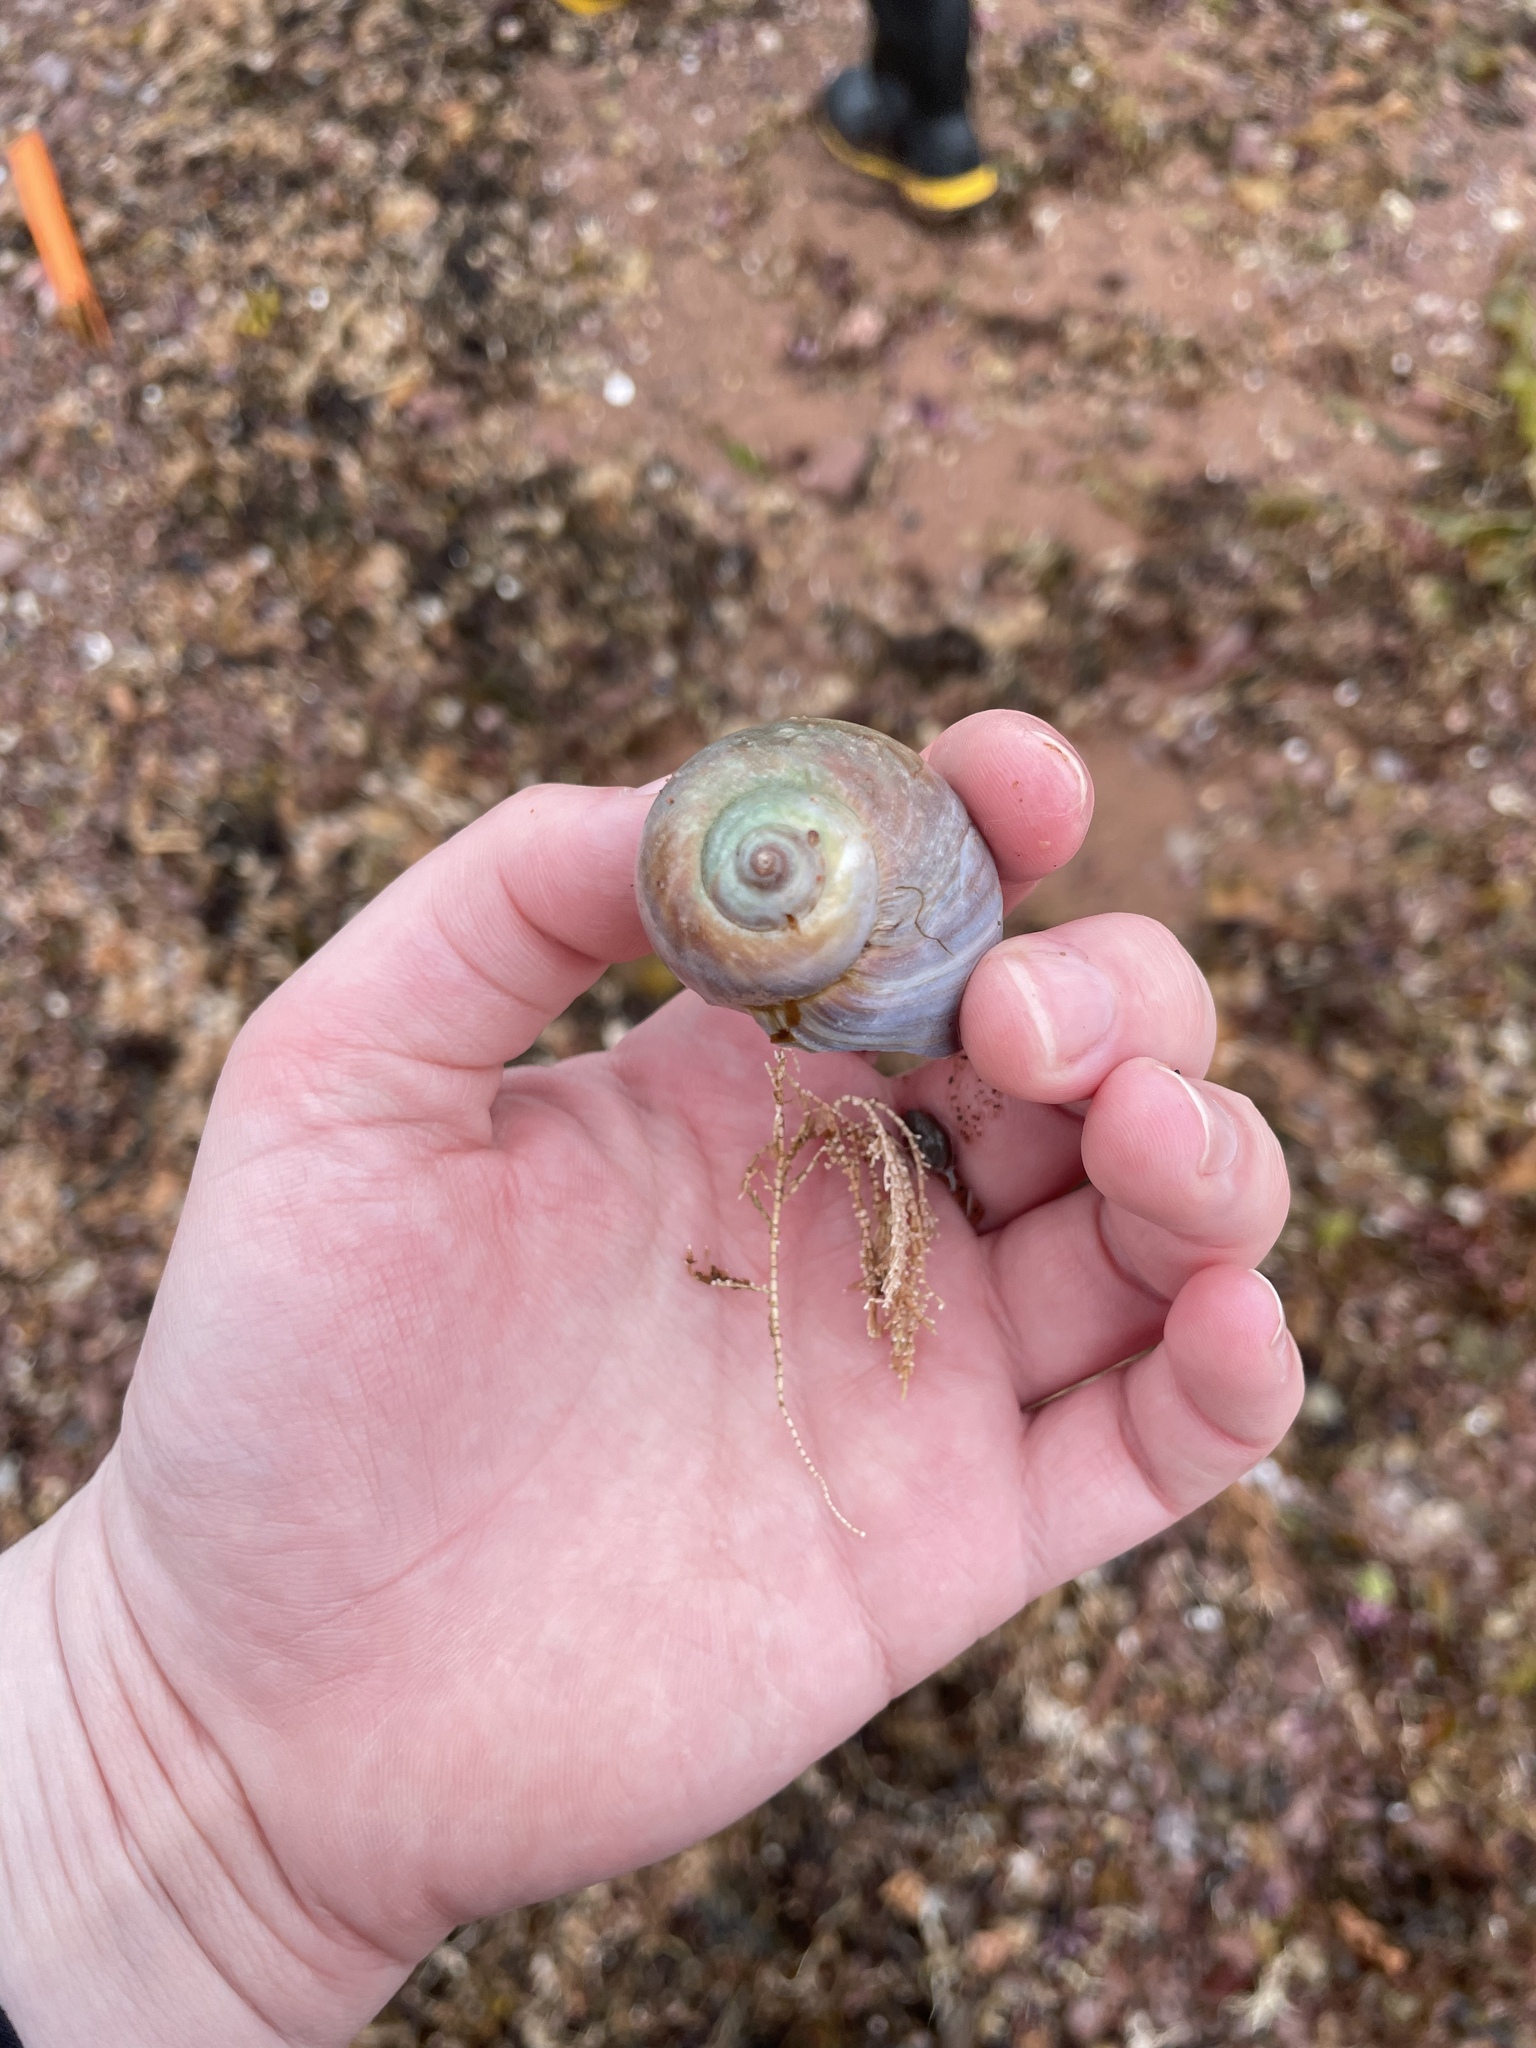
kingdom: Animalia
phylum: Mollusca
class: Gastropoda
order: Littorinimorpha
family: Naticidae
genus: Euspira
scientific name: Euspira heros
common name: Common northern moonsnail
